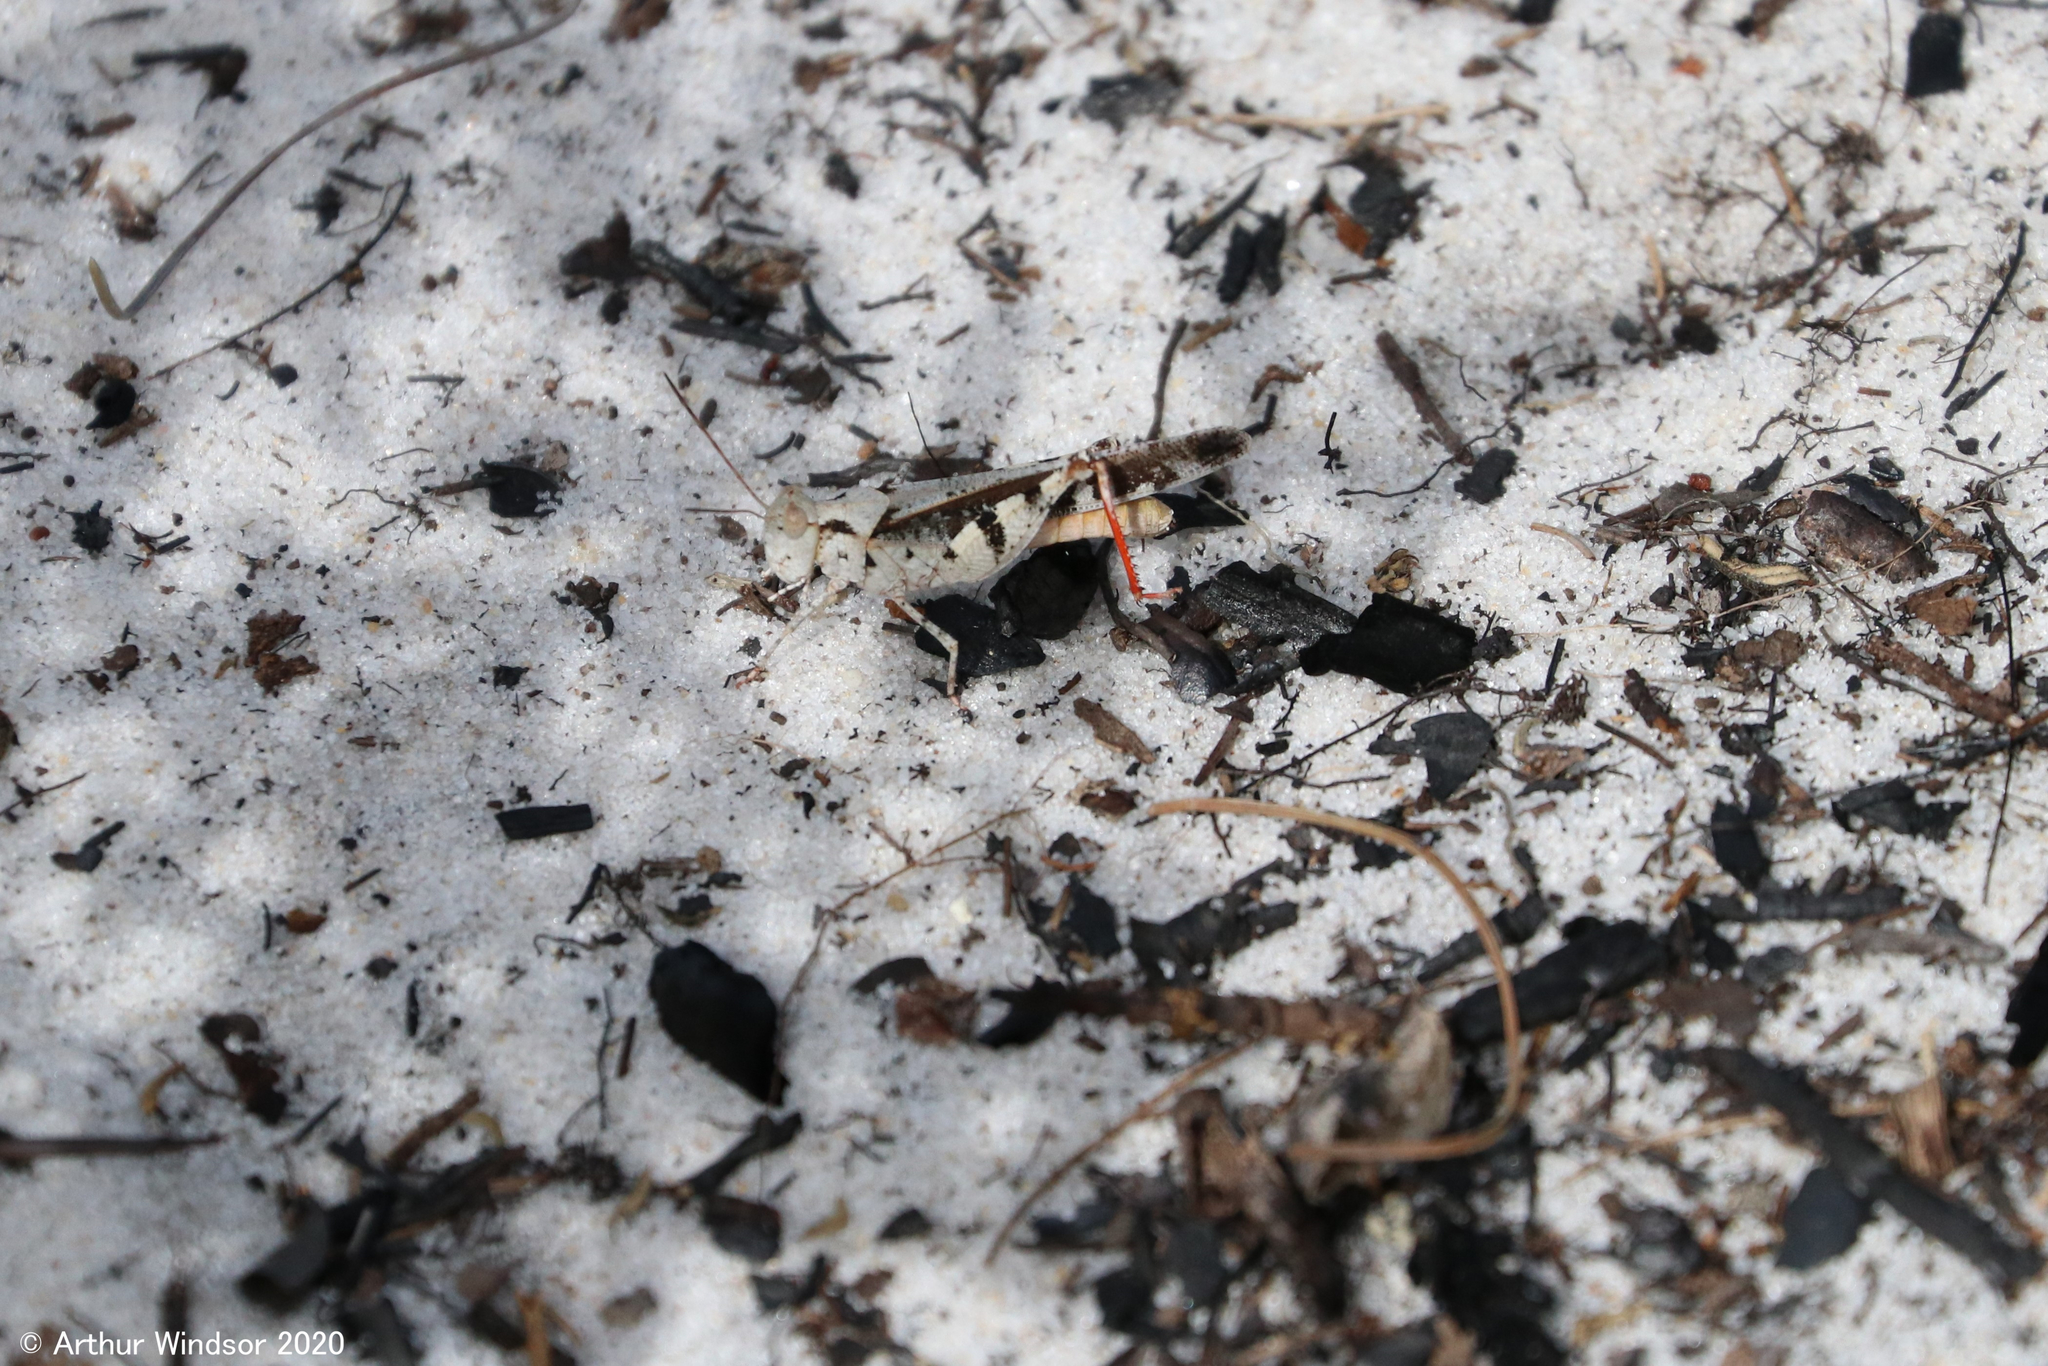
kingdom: Animalia
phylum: Arthropoda
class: Insecta
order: Orthoptera
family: Acrididae
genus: Spharagemon
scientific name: Spharagemon marmoratum
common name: Marbled grasshopper
